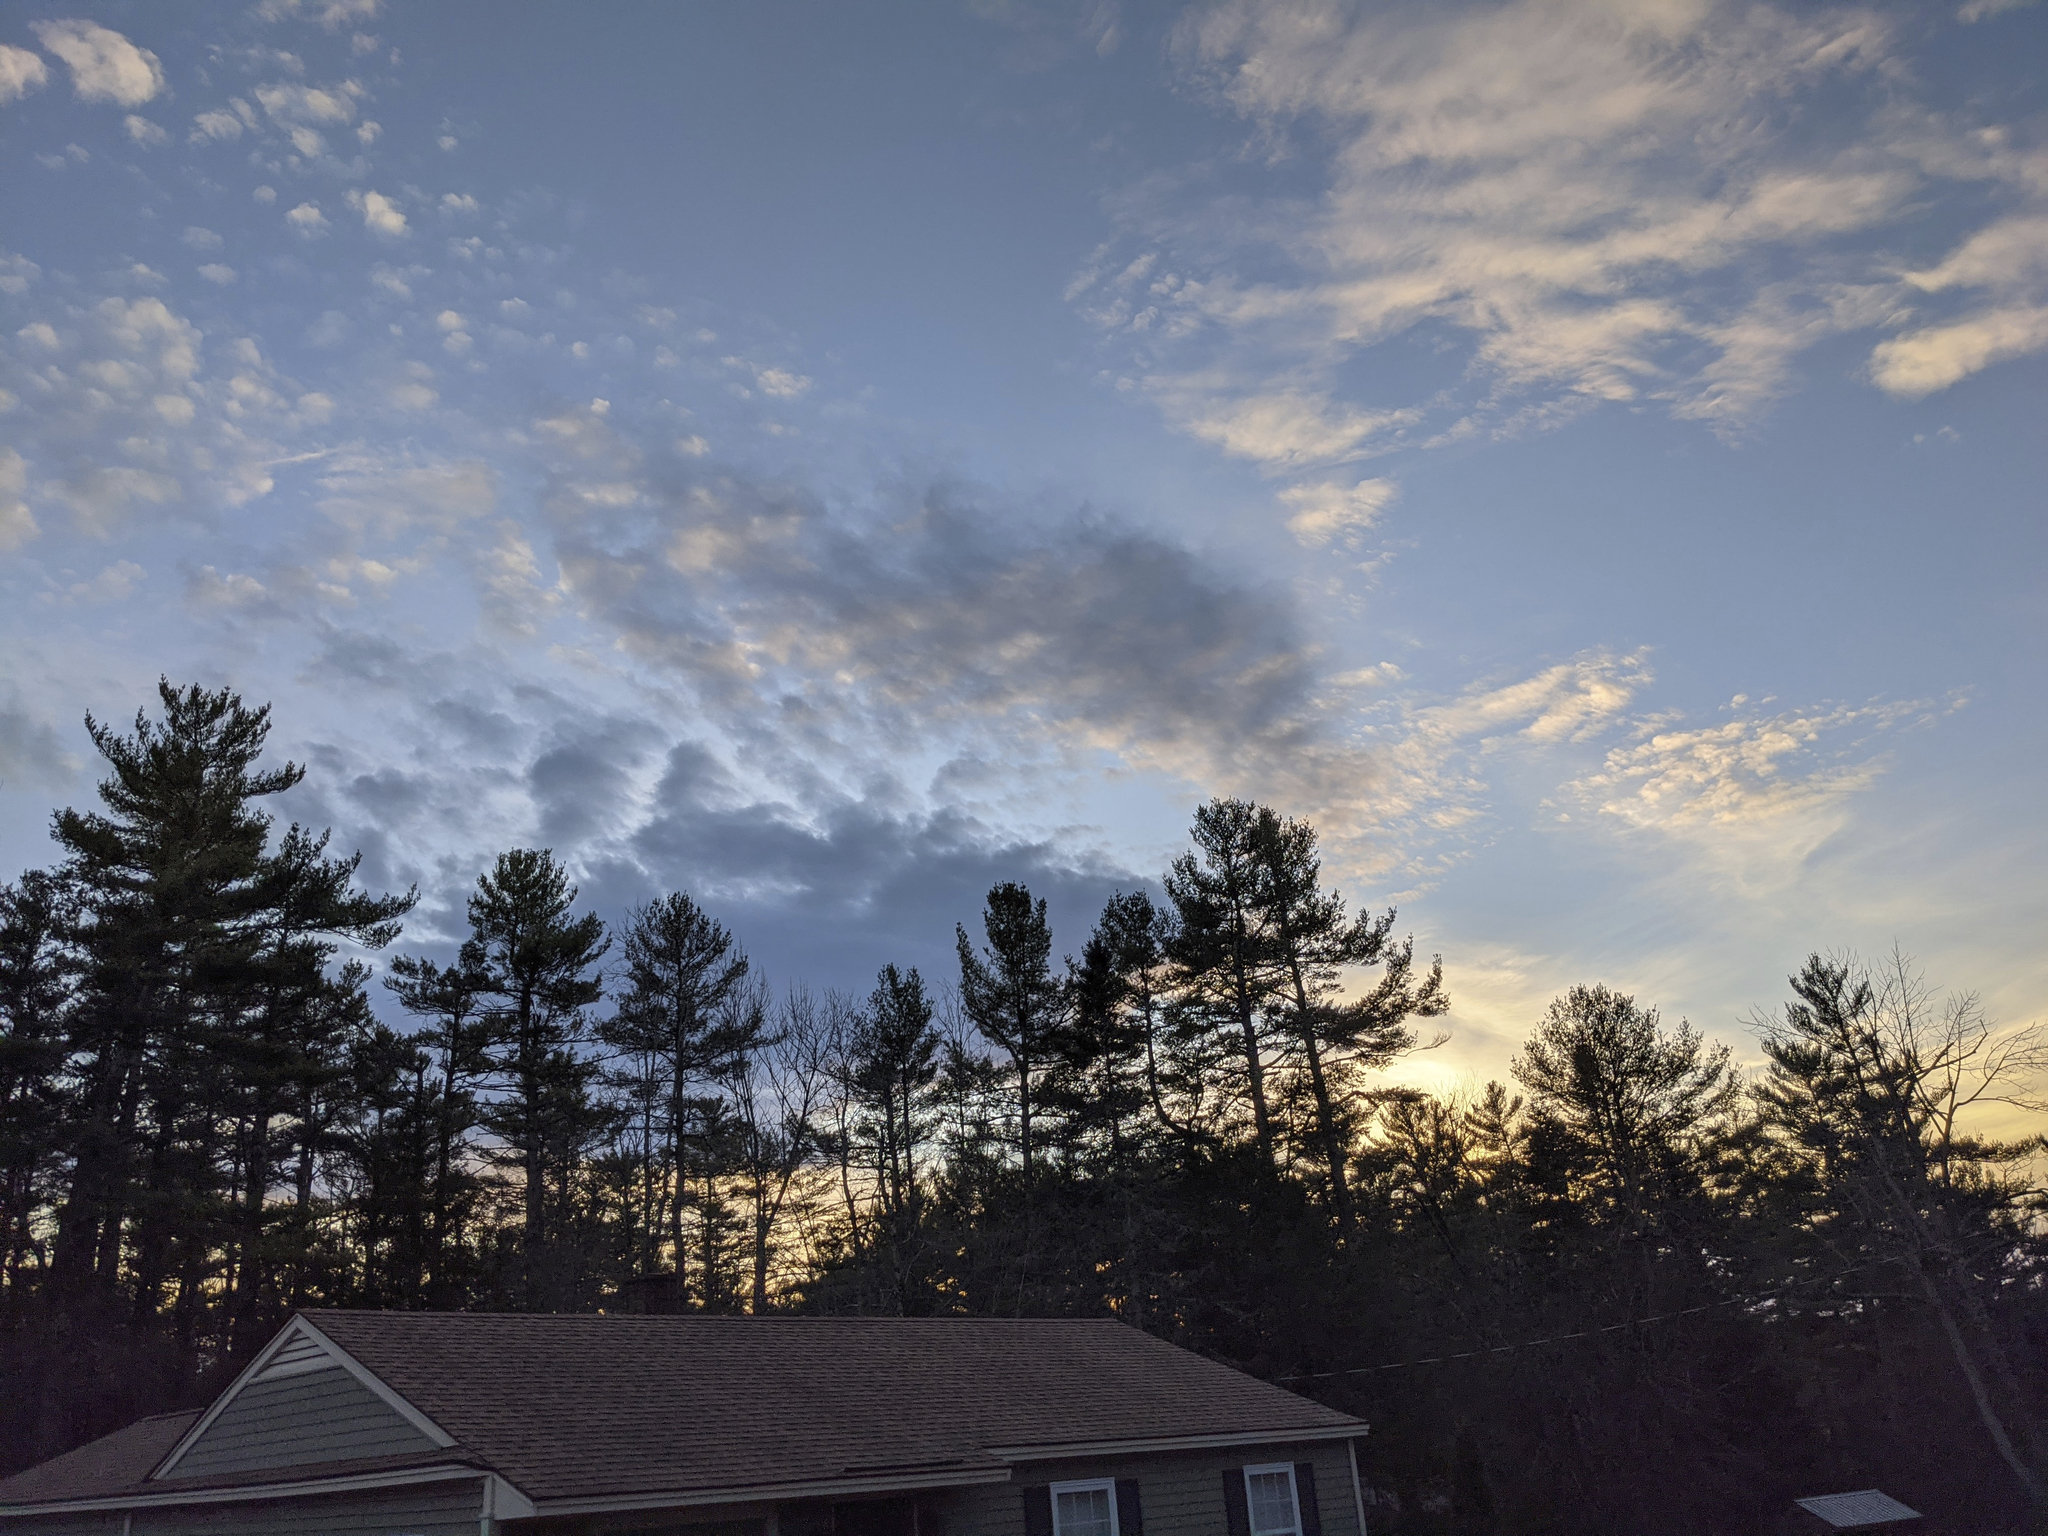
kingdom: Plantae
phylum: Tracheophyta
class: Pinopsida
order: Pinales
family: Pinaceae
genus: Pinus
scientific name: Pinus strobus
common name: Weymouth pine
